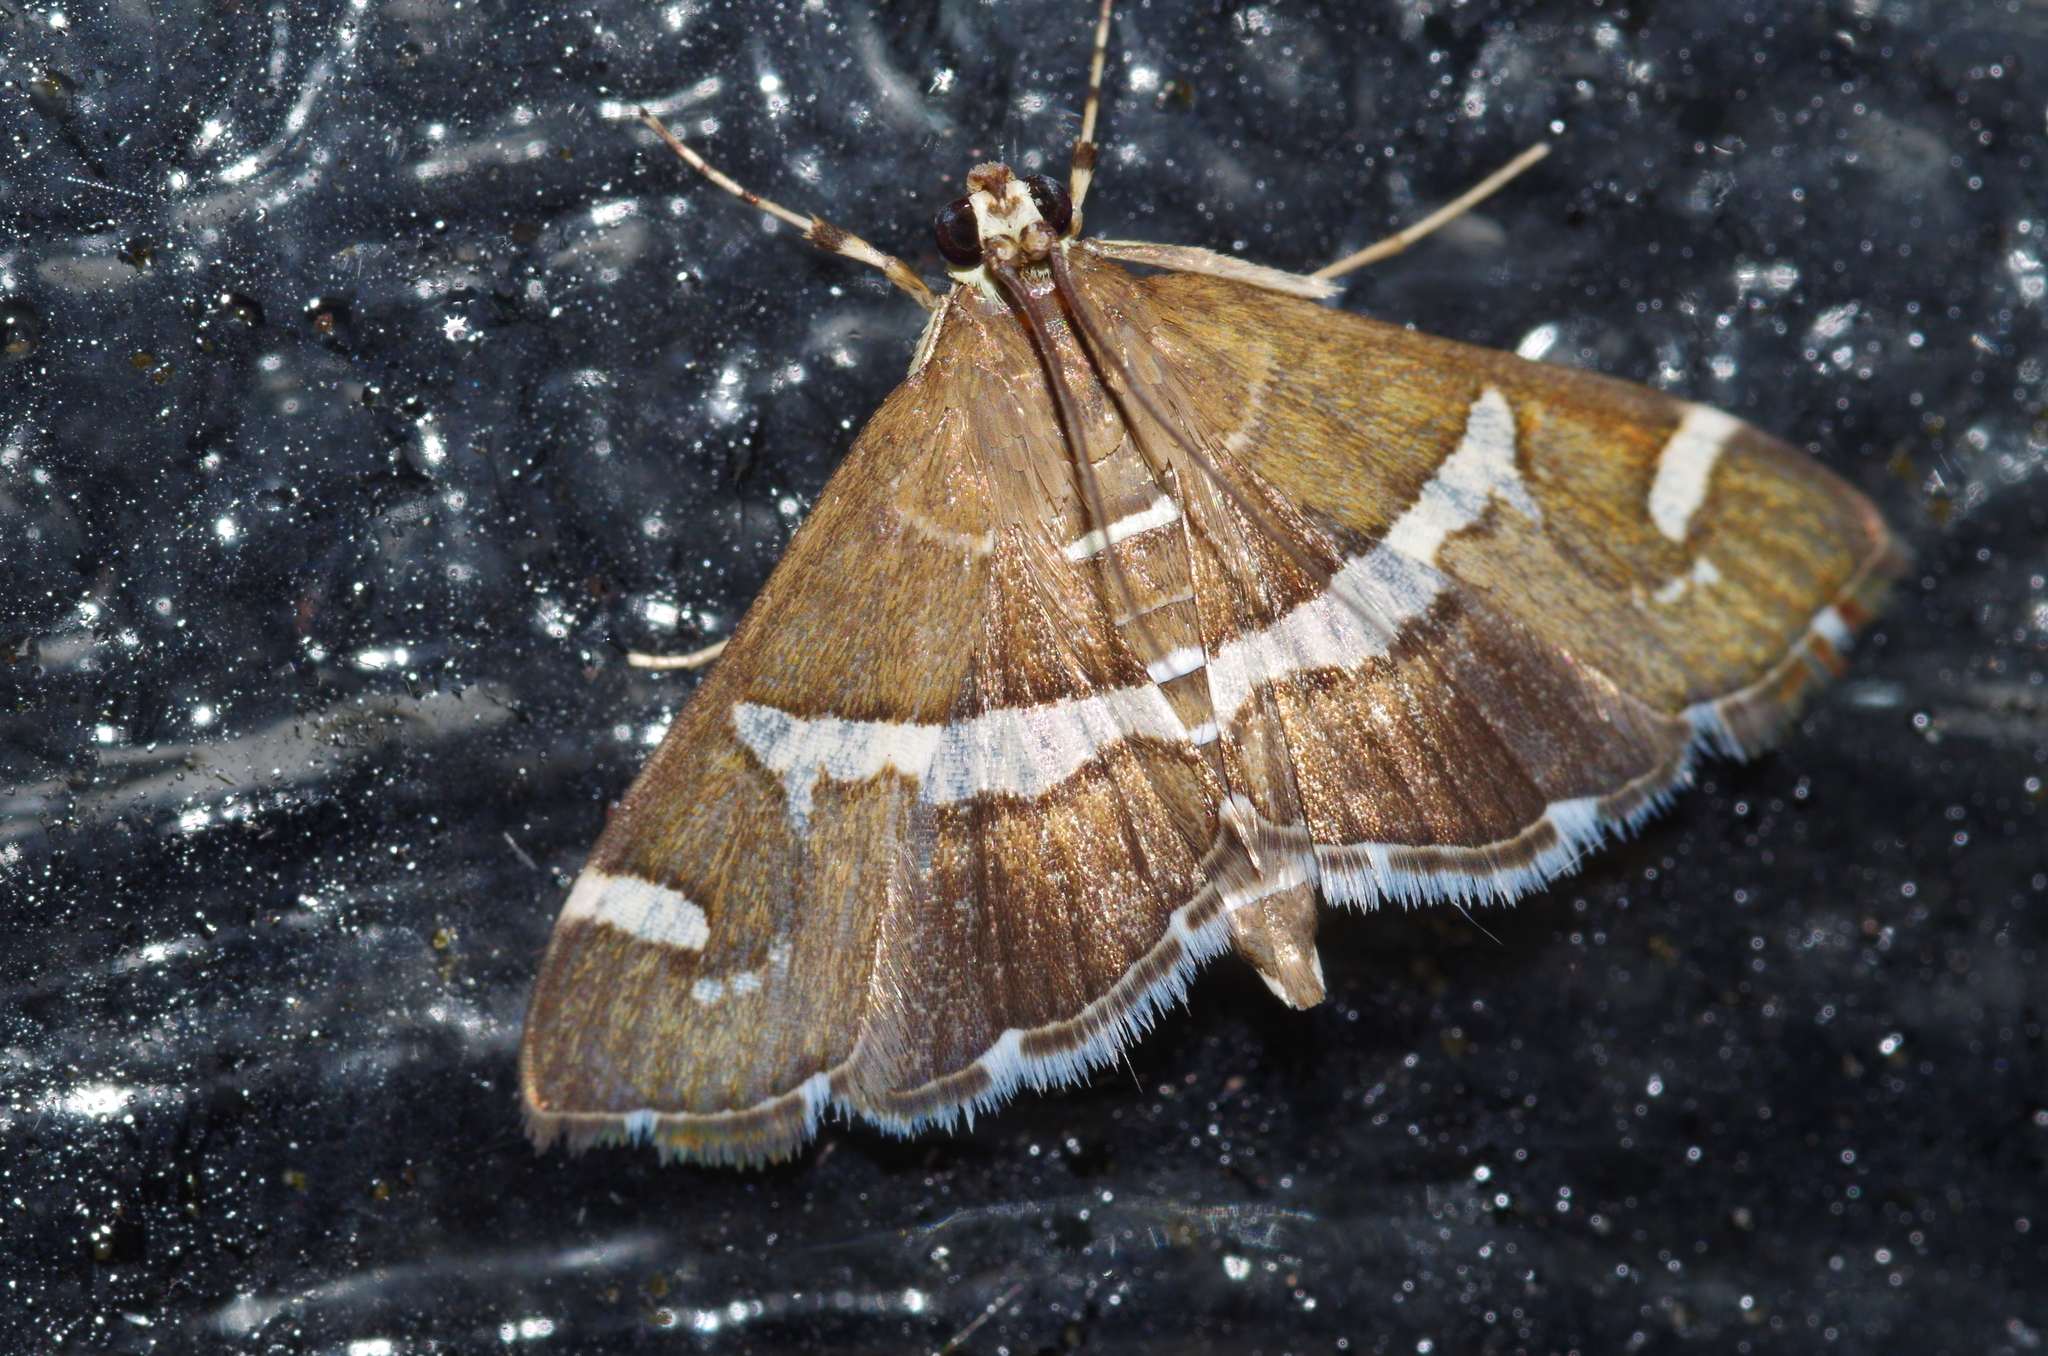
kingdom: Animalia
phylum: Arthropoda
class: Insecta
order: Lepidoptera
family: Crambidae
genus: Spoladea
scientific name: Spoladea recurvalis
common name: Beet webworm moth
